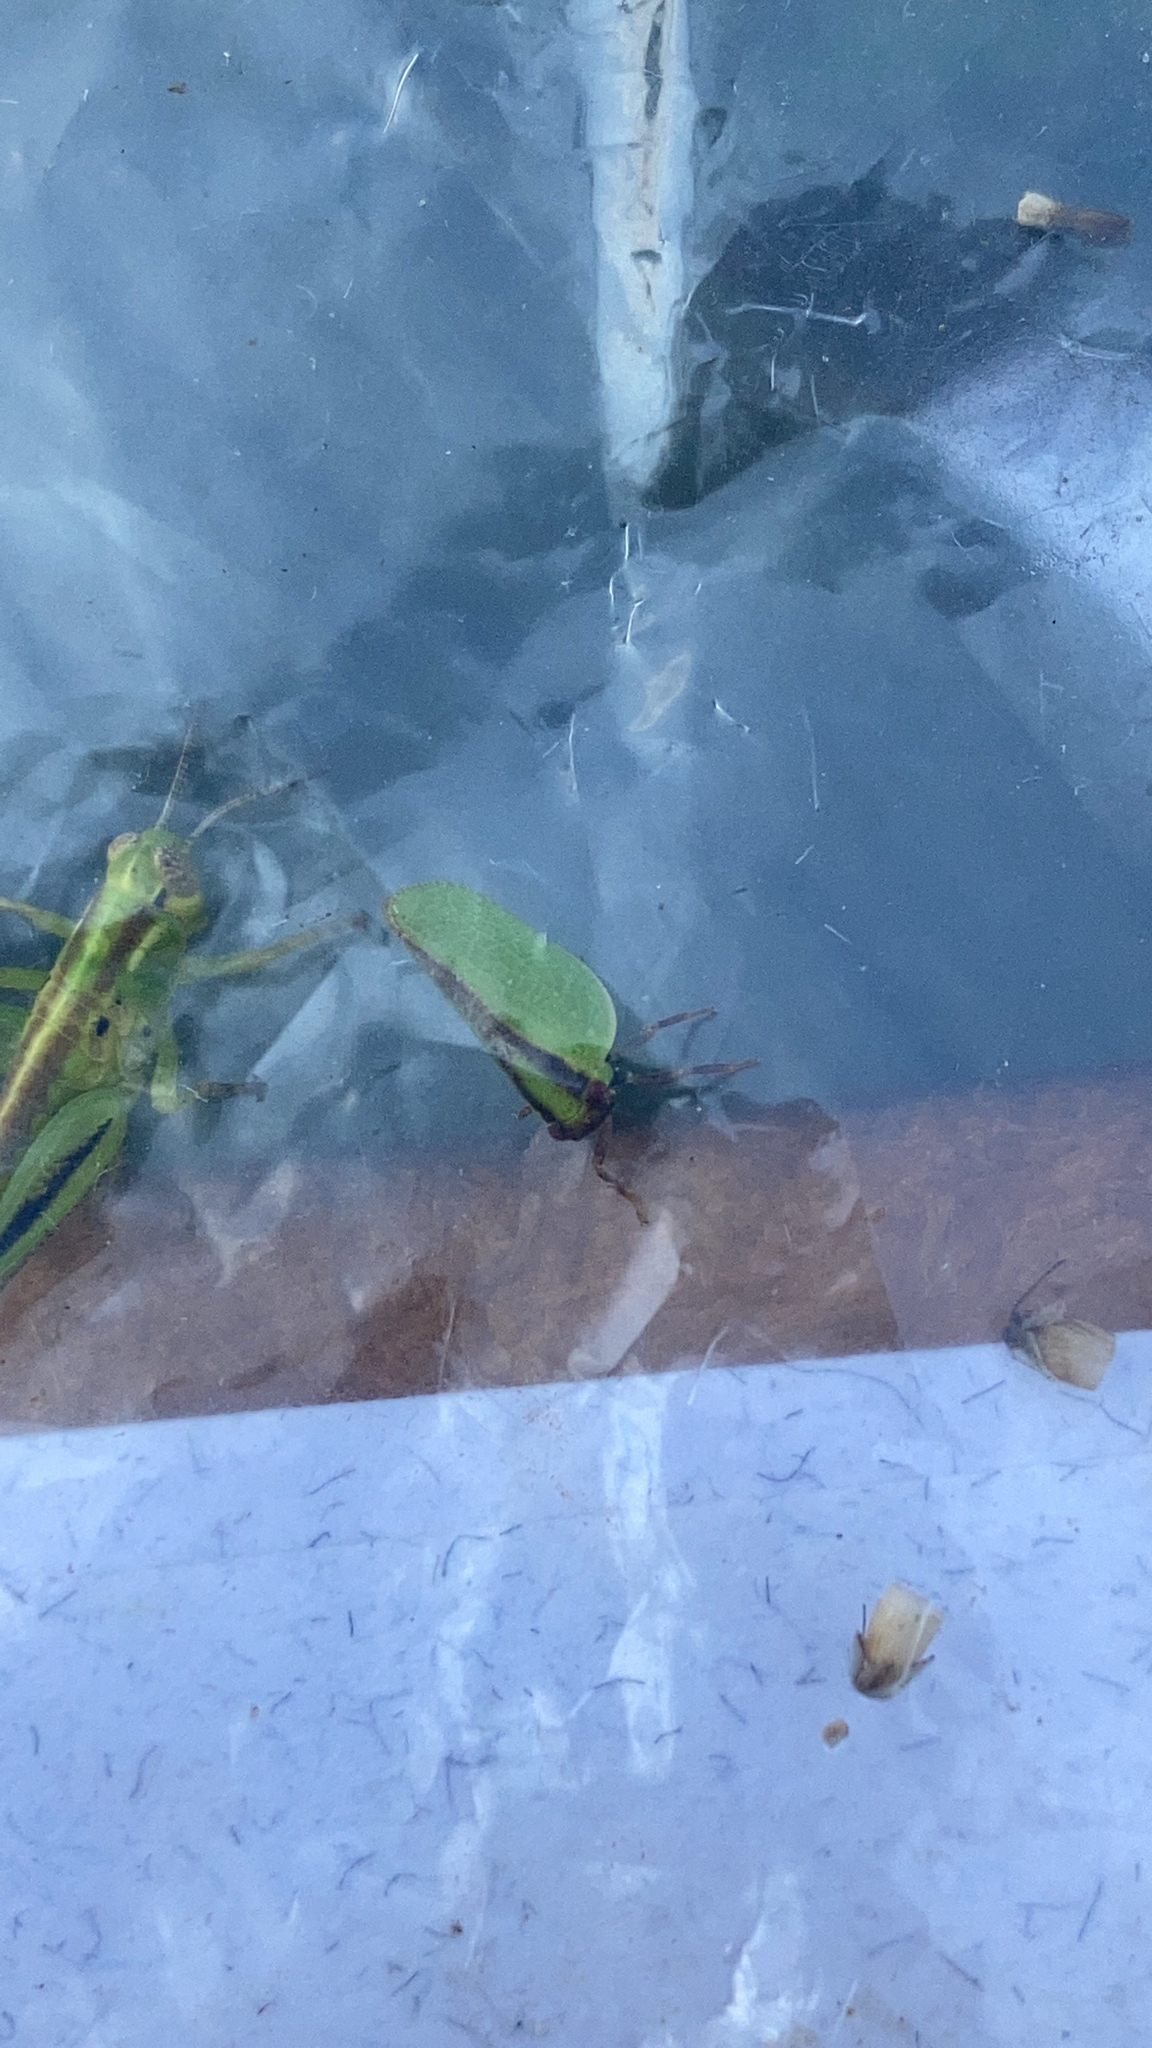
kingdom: Animalia
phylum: Arthropoda
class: Insecta
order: Hemiptera
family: Acanaloniidae
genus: Acanalonia
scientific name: Acanalonia bivittata
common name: Two-striped planthopper
